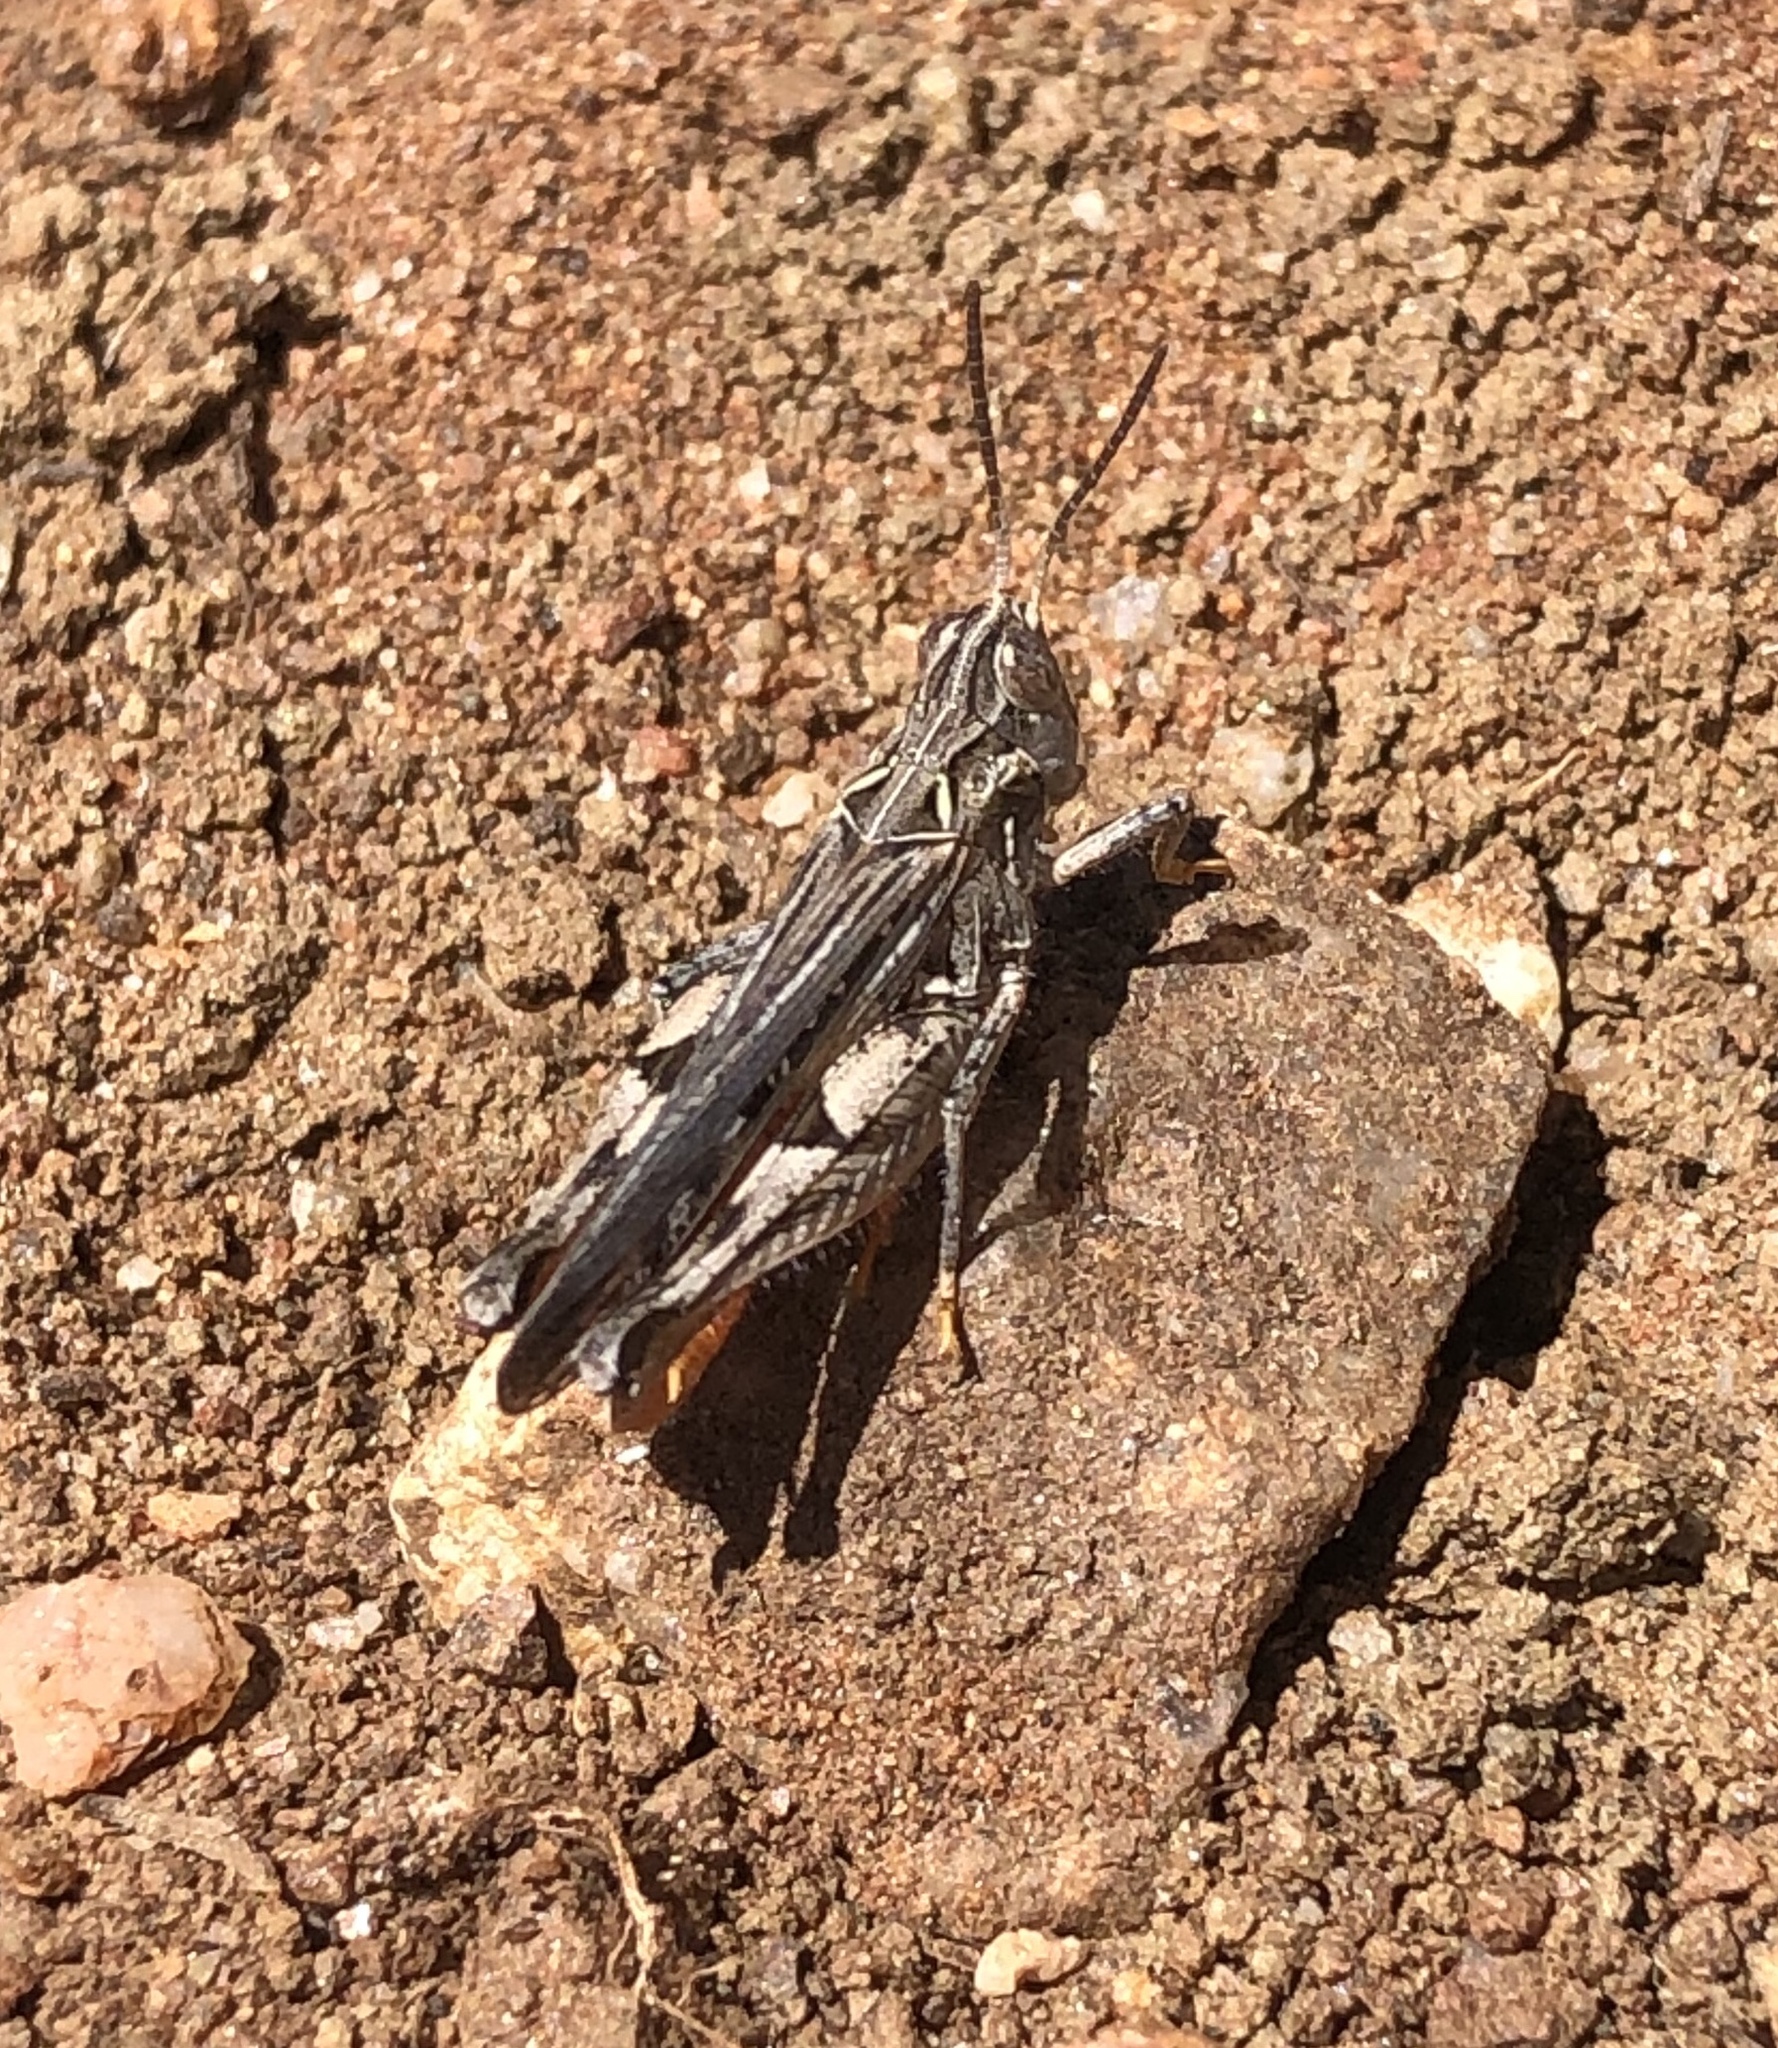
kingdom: Animalia
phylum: Arthropoda
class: Insecta
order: Orthoptera
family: Acrididae
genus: Psoloessa
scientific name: Psoloessa texana
